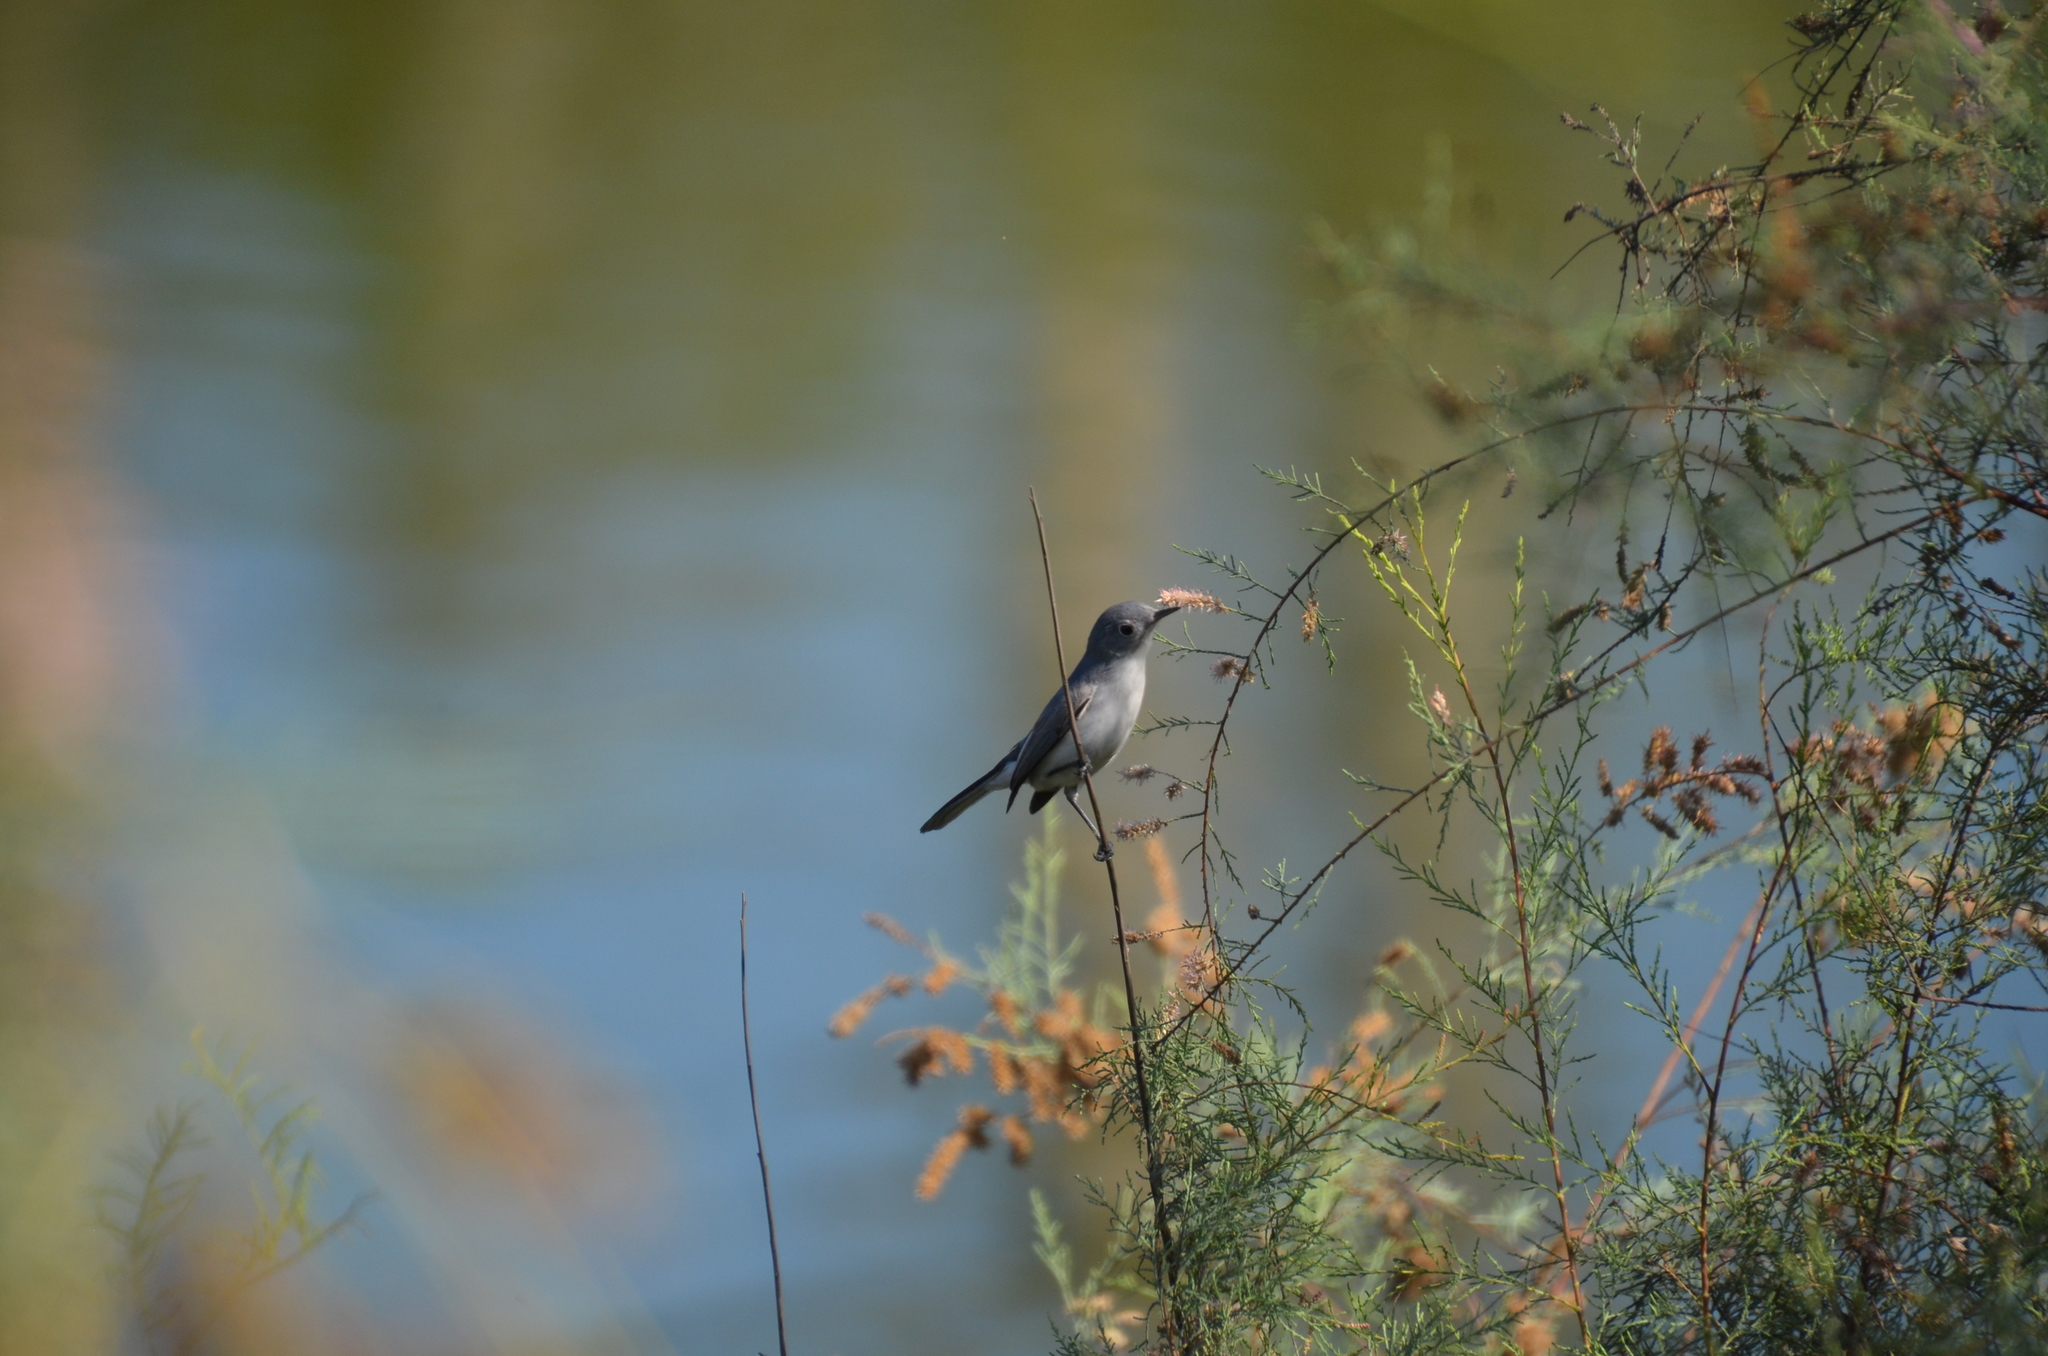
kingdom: Animalia
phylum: Chordata
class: Aves
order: Passeriformes
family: Polioptilidae
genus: Polioptila
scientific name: Polioptila caerulea
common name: Blue-gray gnatcatcher
